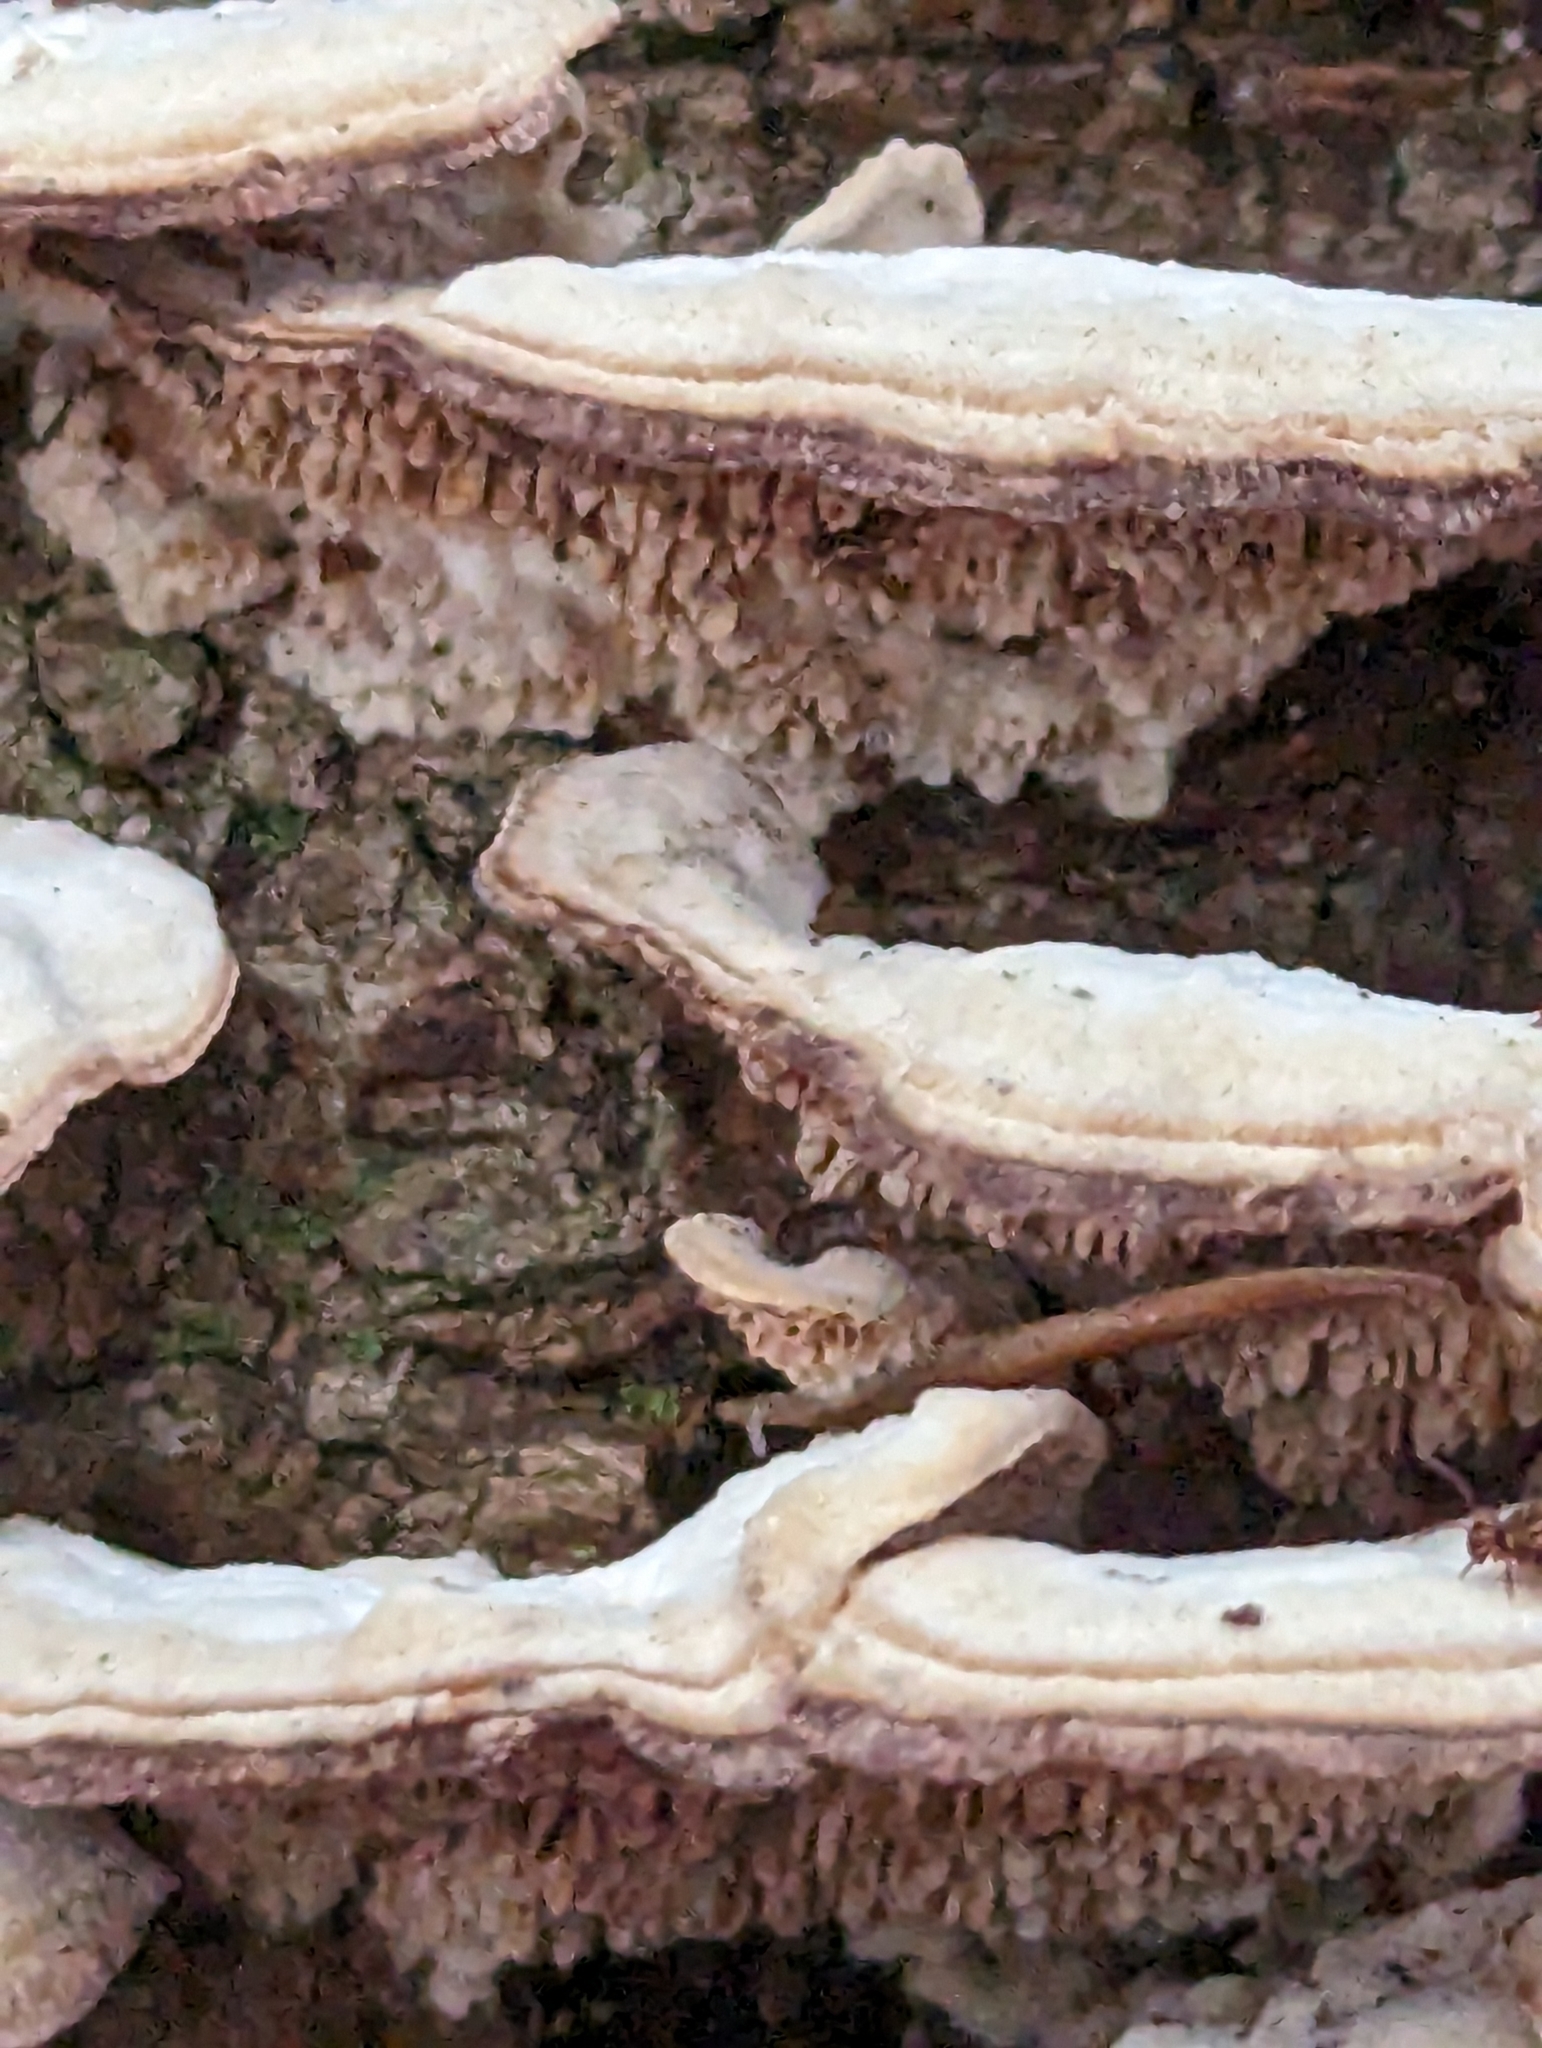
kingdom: Fungi
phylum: Basidiomycota
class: Agaricomycetes
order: Hymenochaetales
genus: Trichaptum
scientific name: Trichaptum biforme
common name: Violet-toothed polypore
